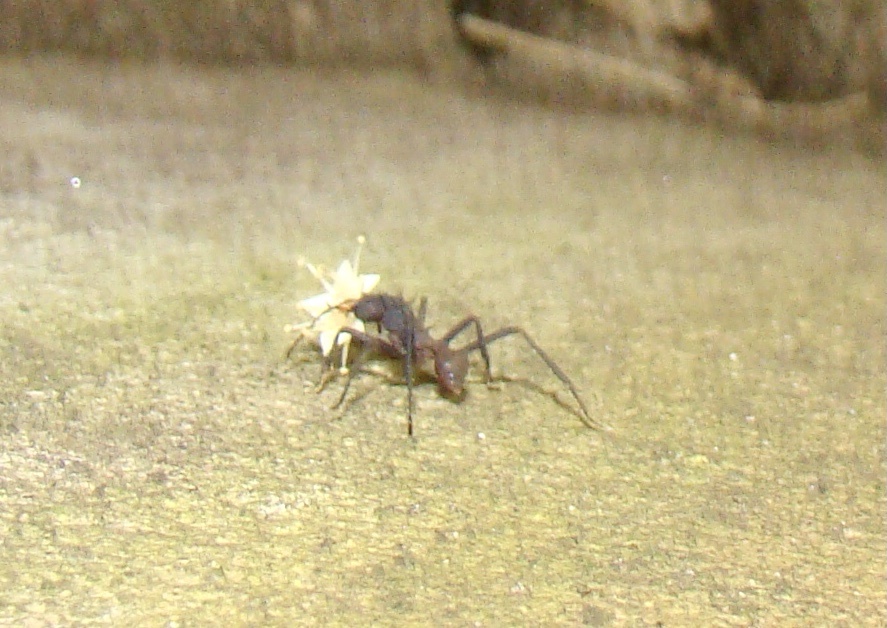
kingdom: Animalia
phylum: Arthropoda
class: Insecta
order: Hymenoptera
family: Formicidae
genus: Acromyrmex
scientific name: Acromyrmex volcanus
